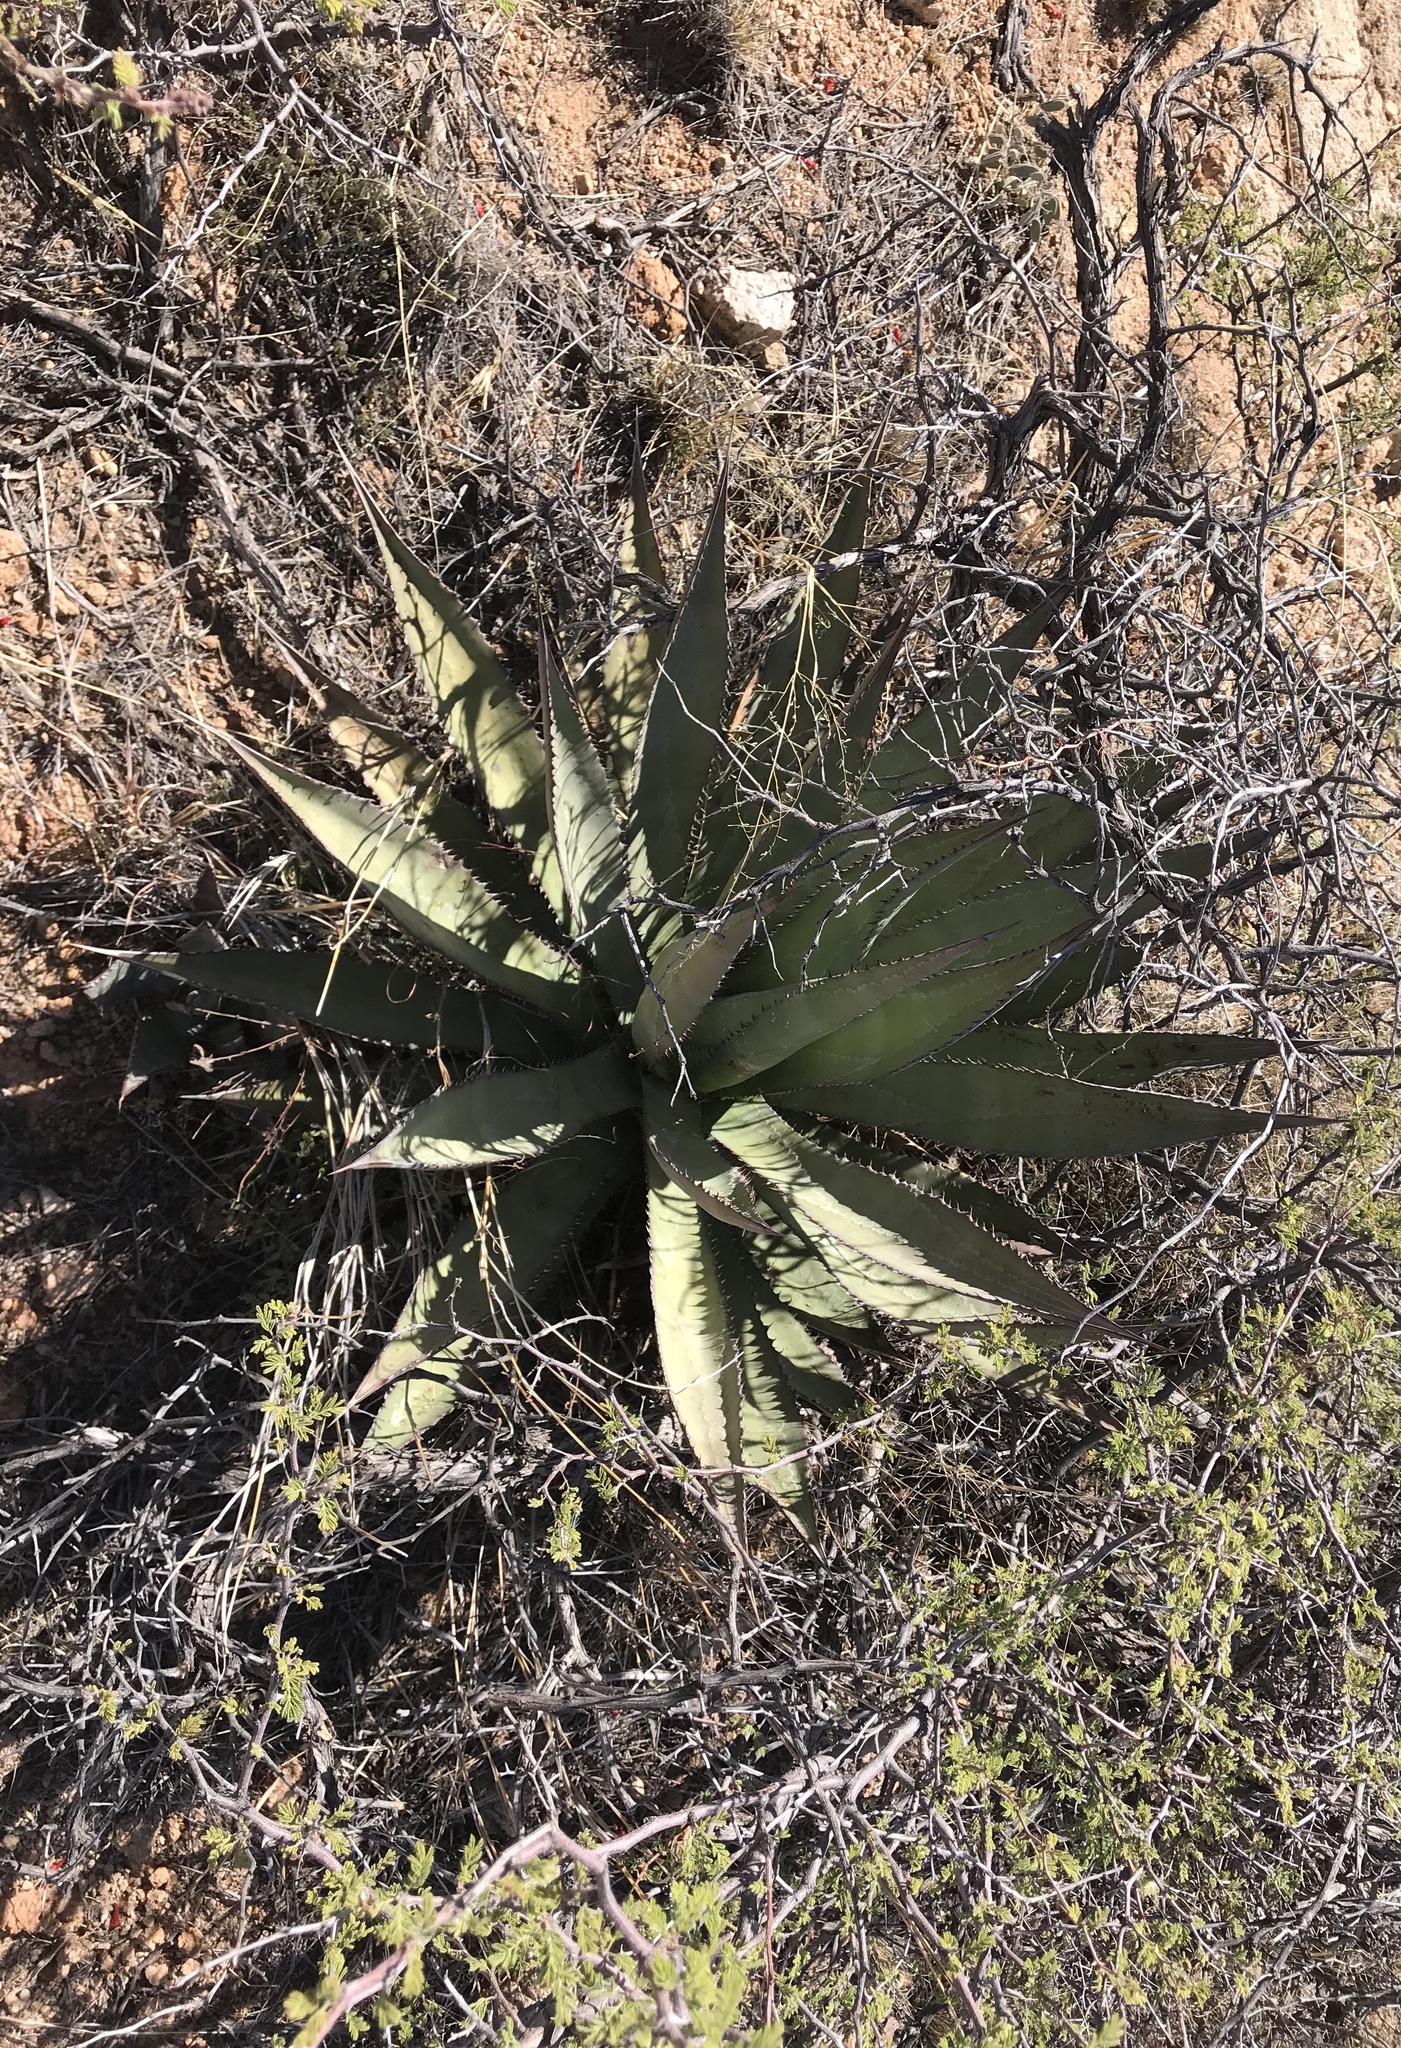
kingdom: Plantae
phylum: Tracheophyta
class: Liliopsida
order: Asparagales
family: Asparagaceae
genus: Agave
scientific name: Agave palmeri
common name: Palmer agave
